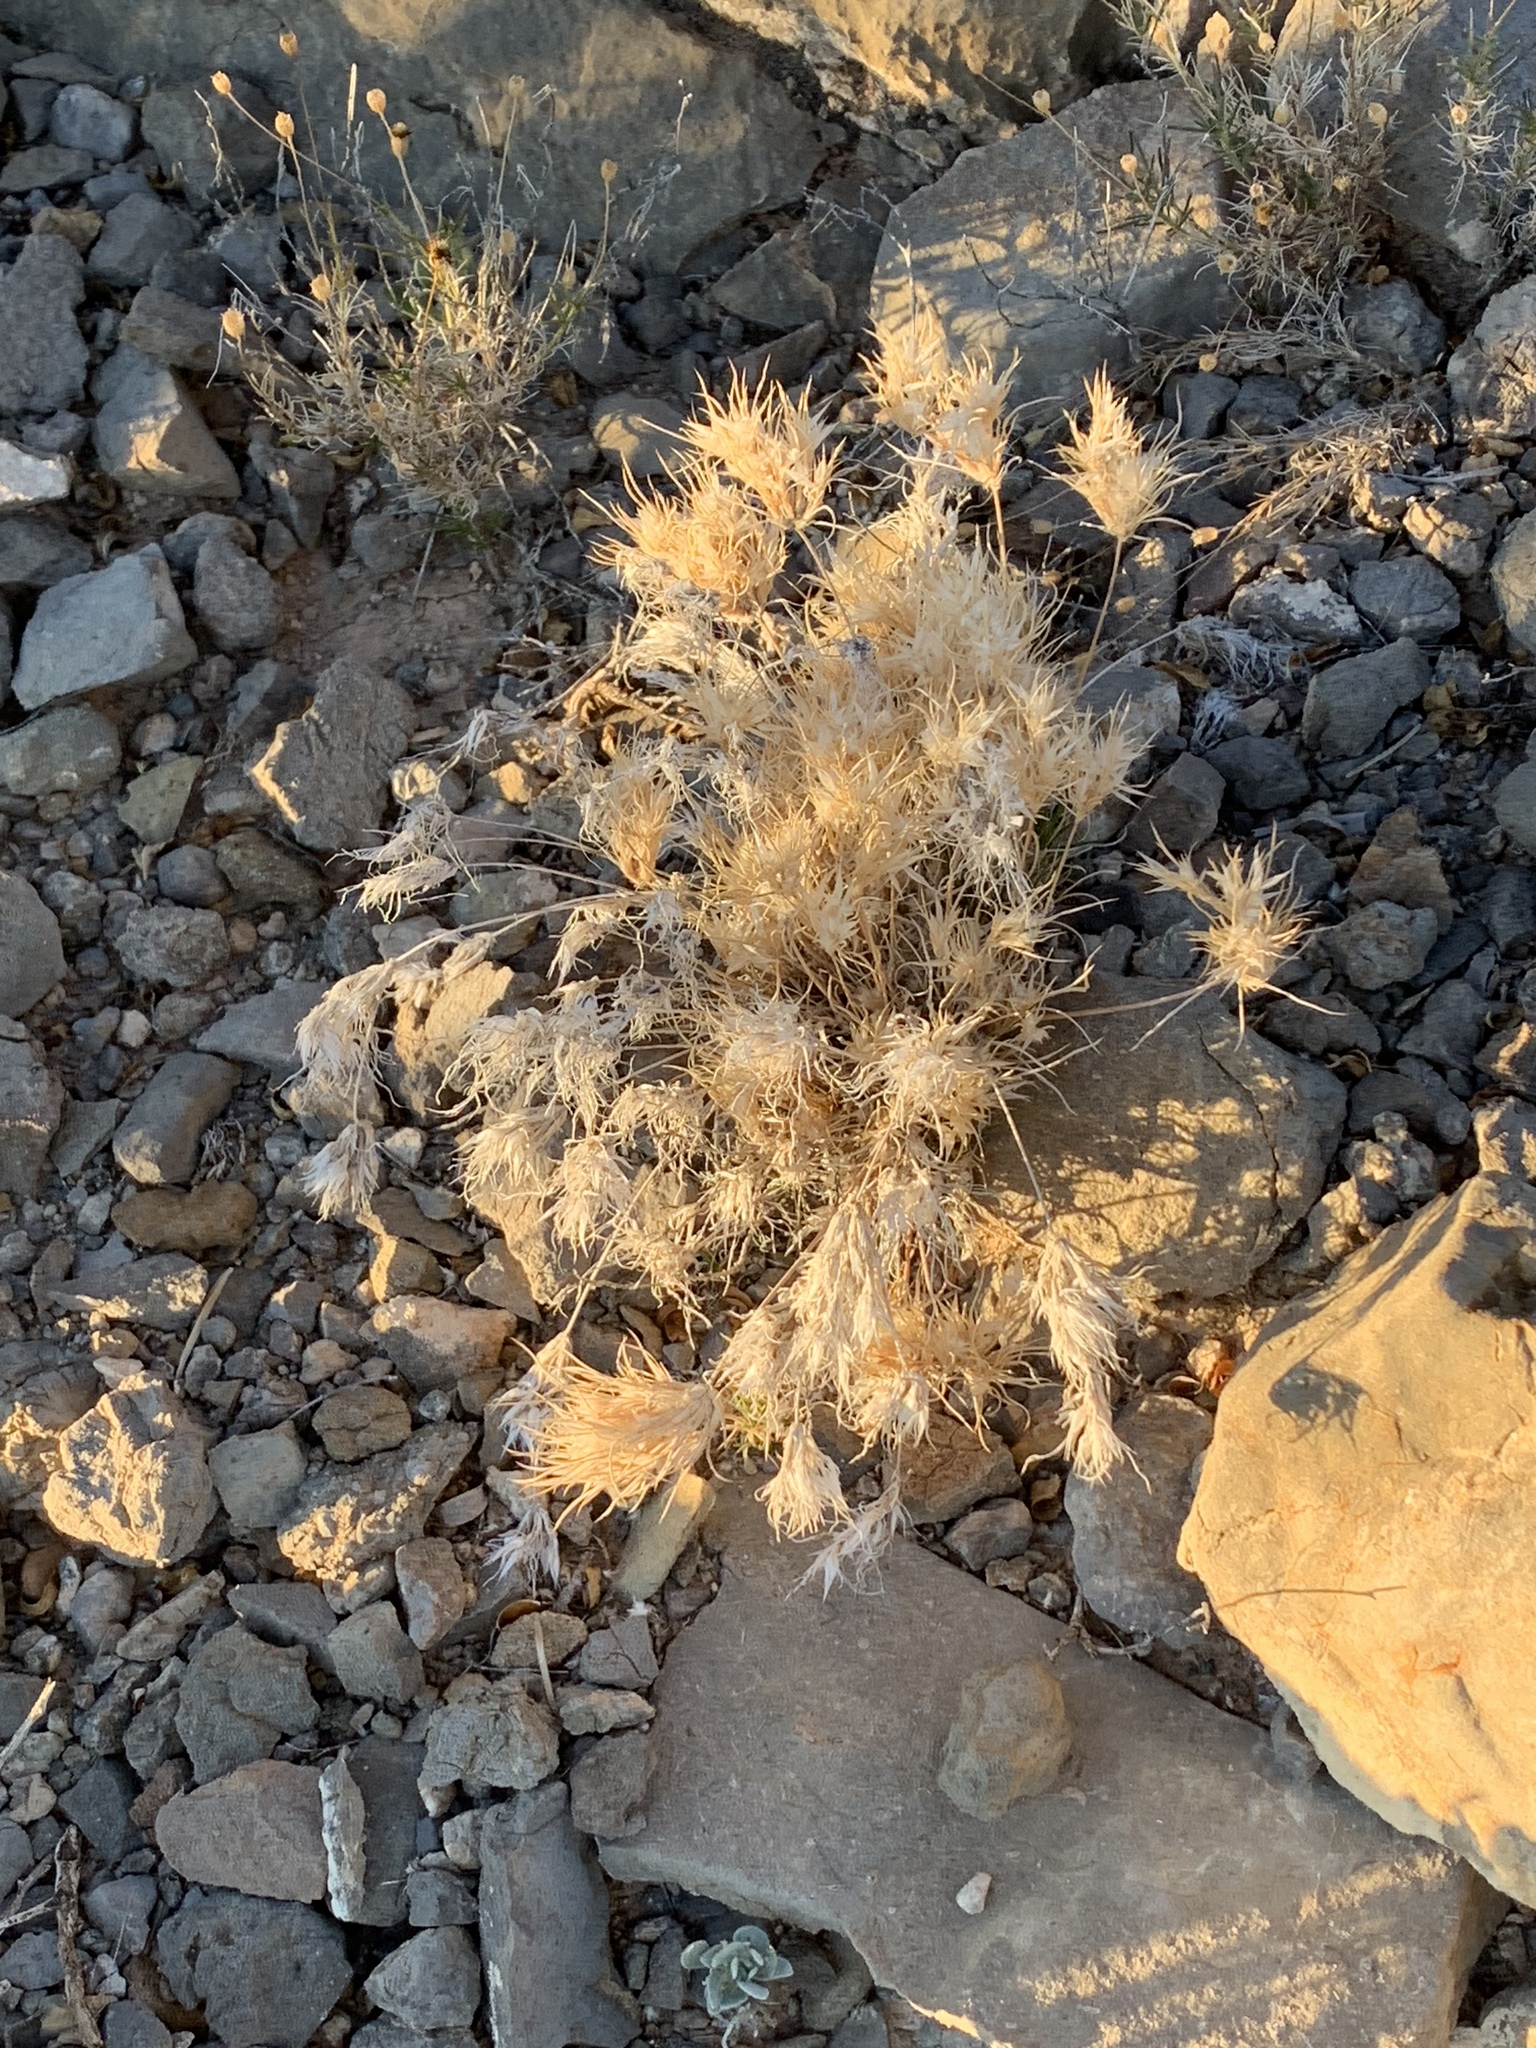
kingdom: Plantae
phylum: Tracheophyta
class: Liliopsida
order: Poales
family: Poaceae
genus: Dasyochloa
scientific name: Dasyochloa pulchella
